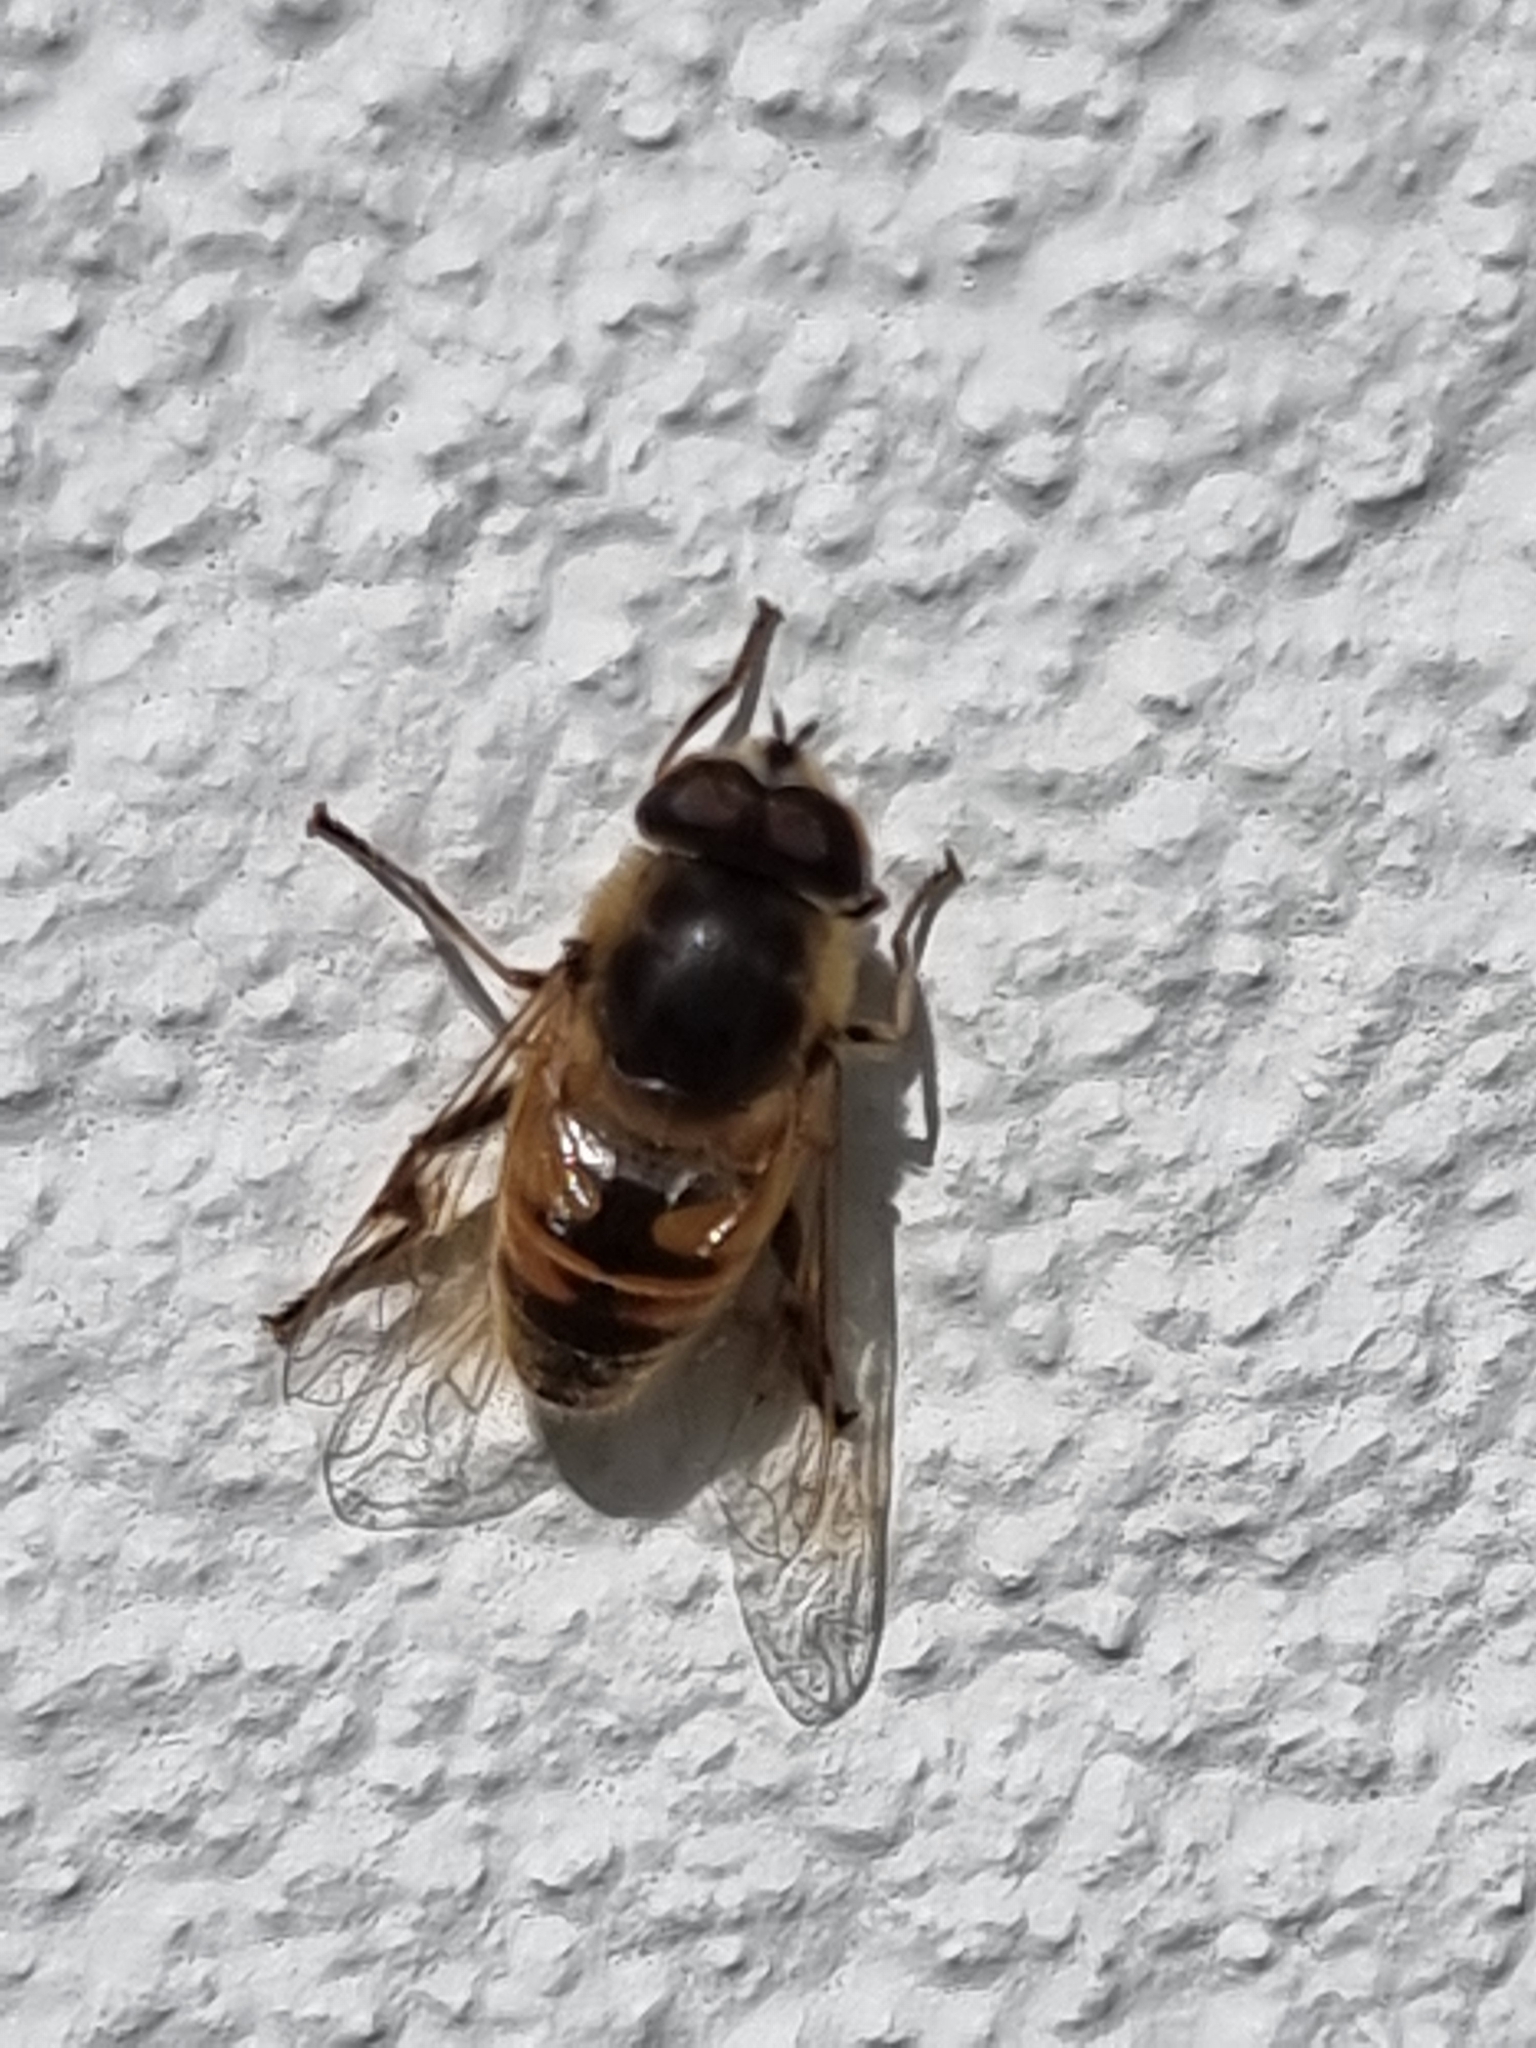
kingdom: Animalia
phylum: Arthropoda
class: Insecta
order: Diptera
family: Syrphidae
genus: Eristalis
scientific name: Eristalis tenax
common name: Drone fly
